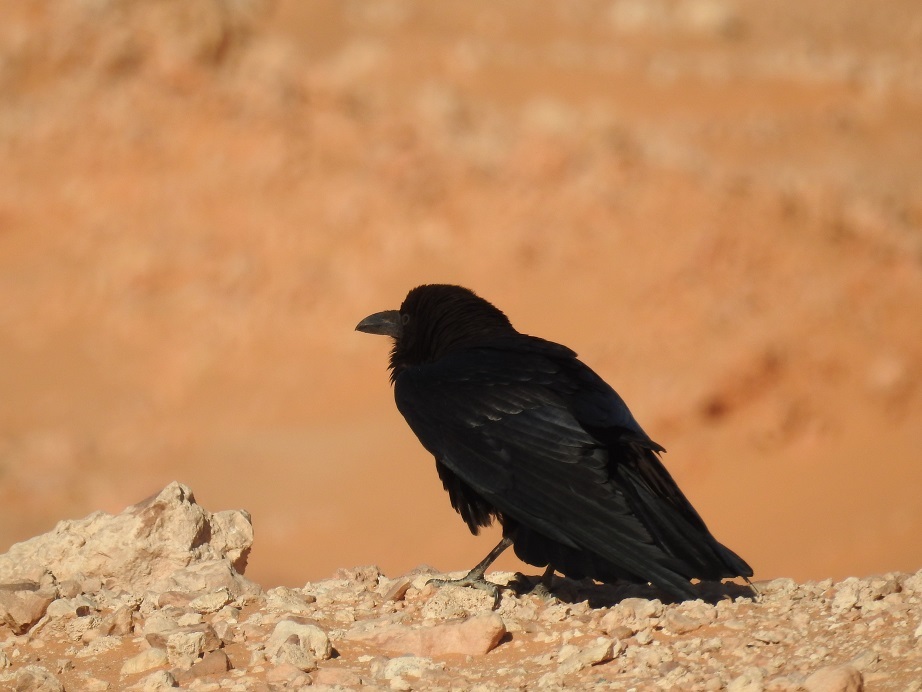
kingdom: Animalia
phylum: Chordata
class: Aves
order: Passeriformes
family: Corvidae
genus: Corvus
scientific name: Corvus corax
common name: Common raven
